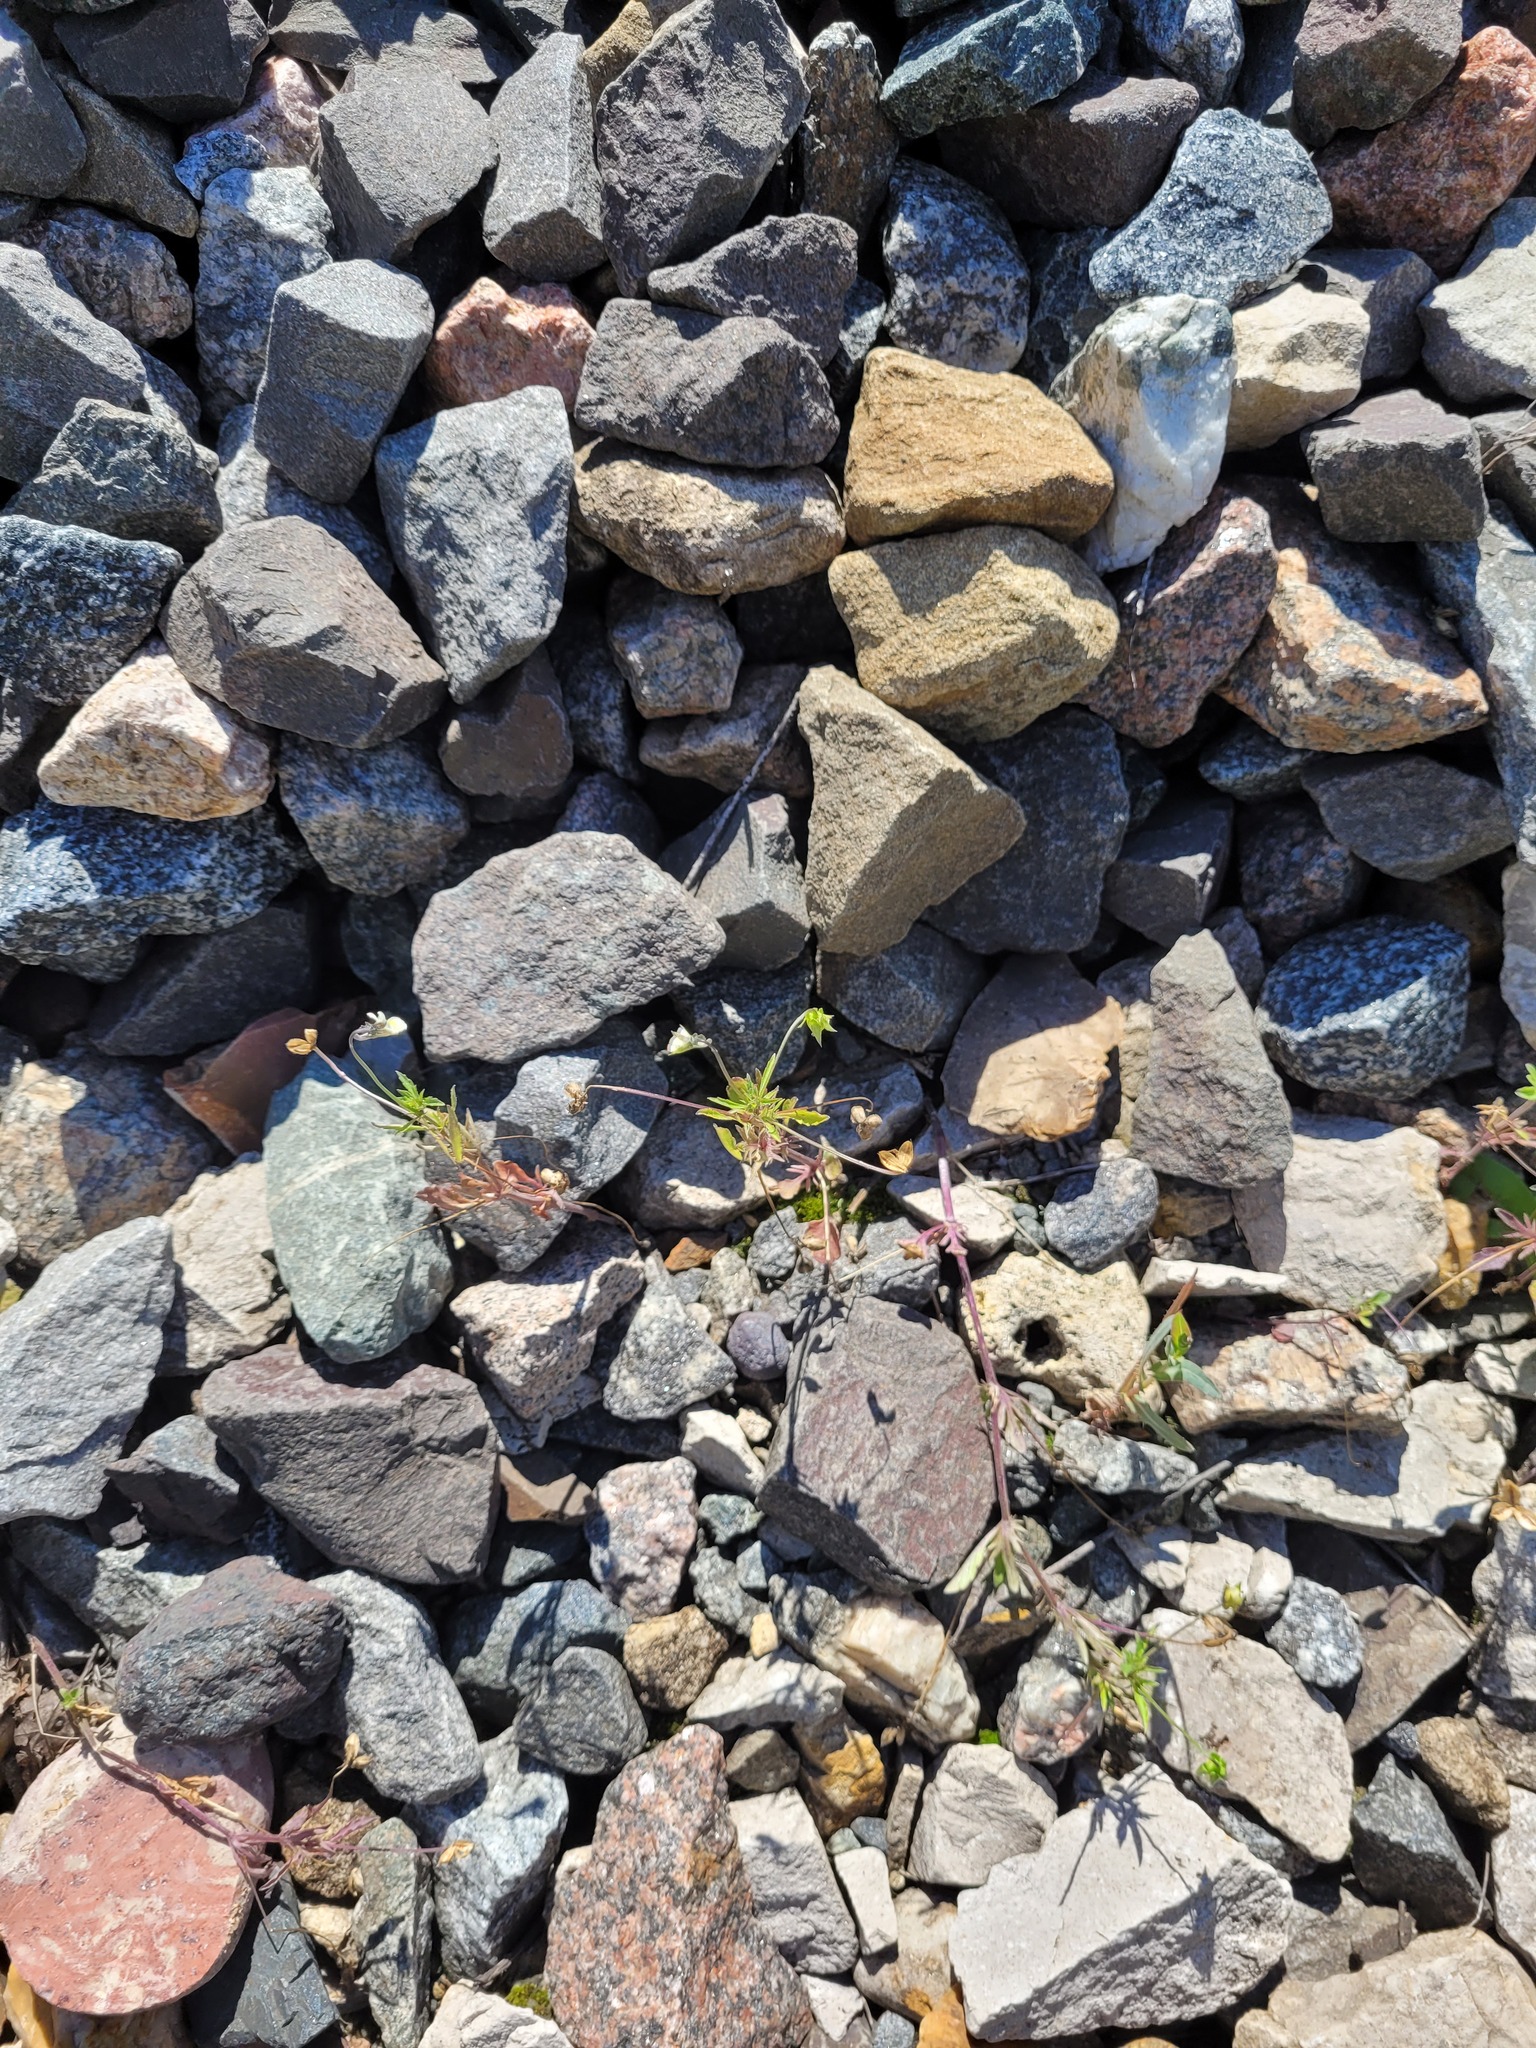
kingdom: Plantae
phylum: Tracheophyta
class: Magnoliopsida
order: Malpighiales
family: Violaceae
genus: Viola
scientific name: Viola arvensis
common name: Field pansy
